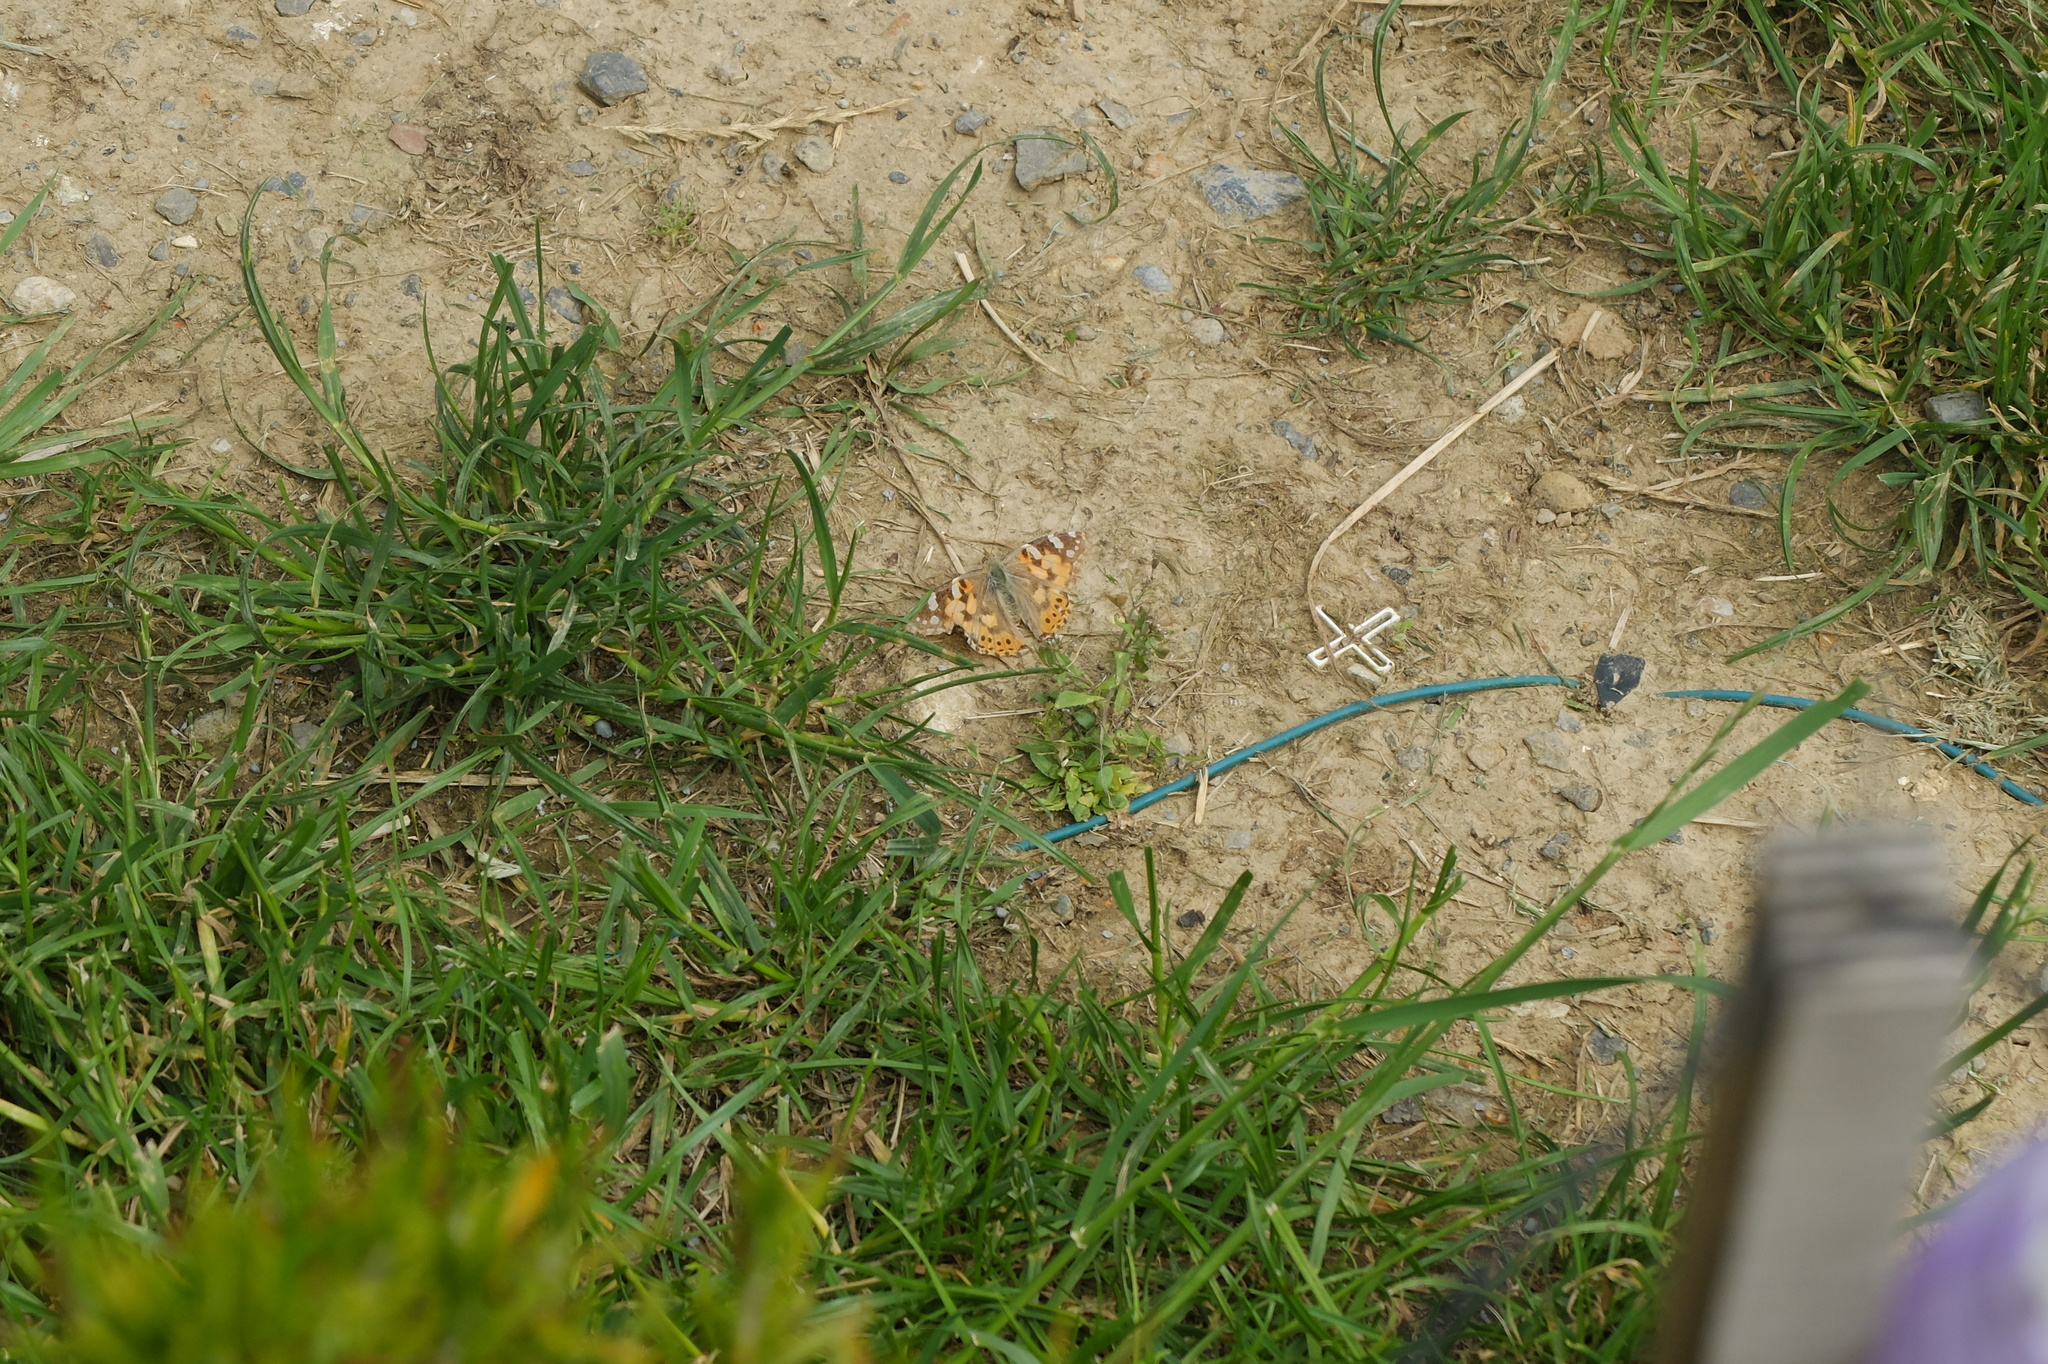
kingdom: Animalia
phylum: Arthropoda
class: Insecta
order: Lepidoptera
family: Nymphalidae
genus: Vanessa
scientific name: Vanessa cardui
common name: Painted lady
